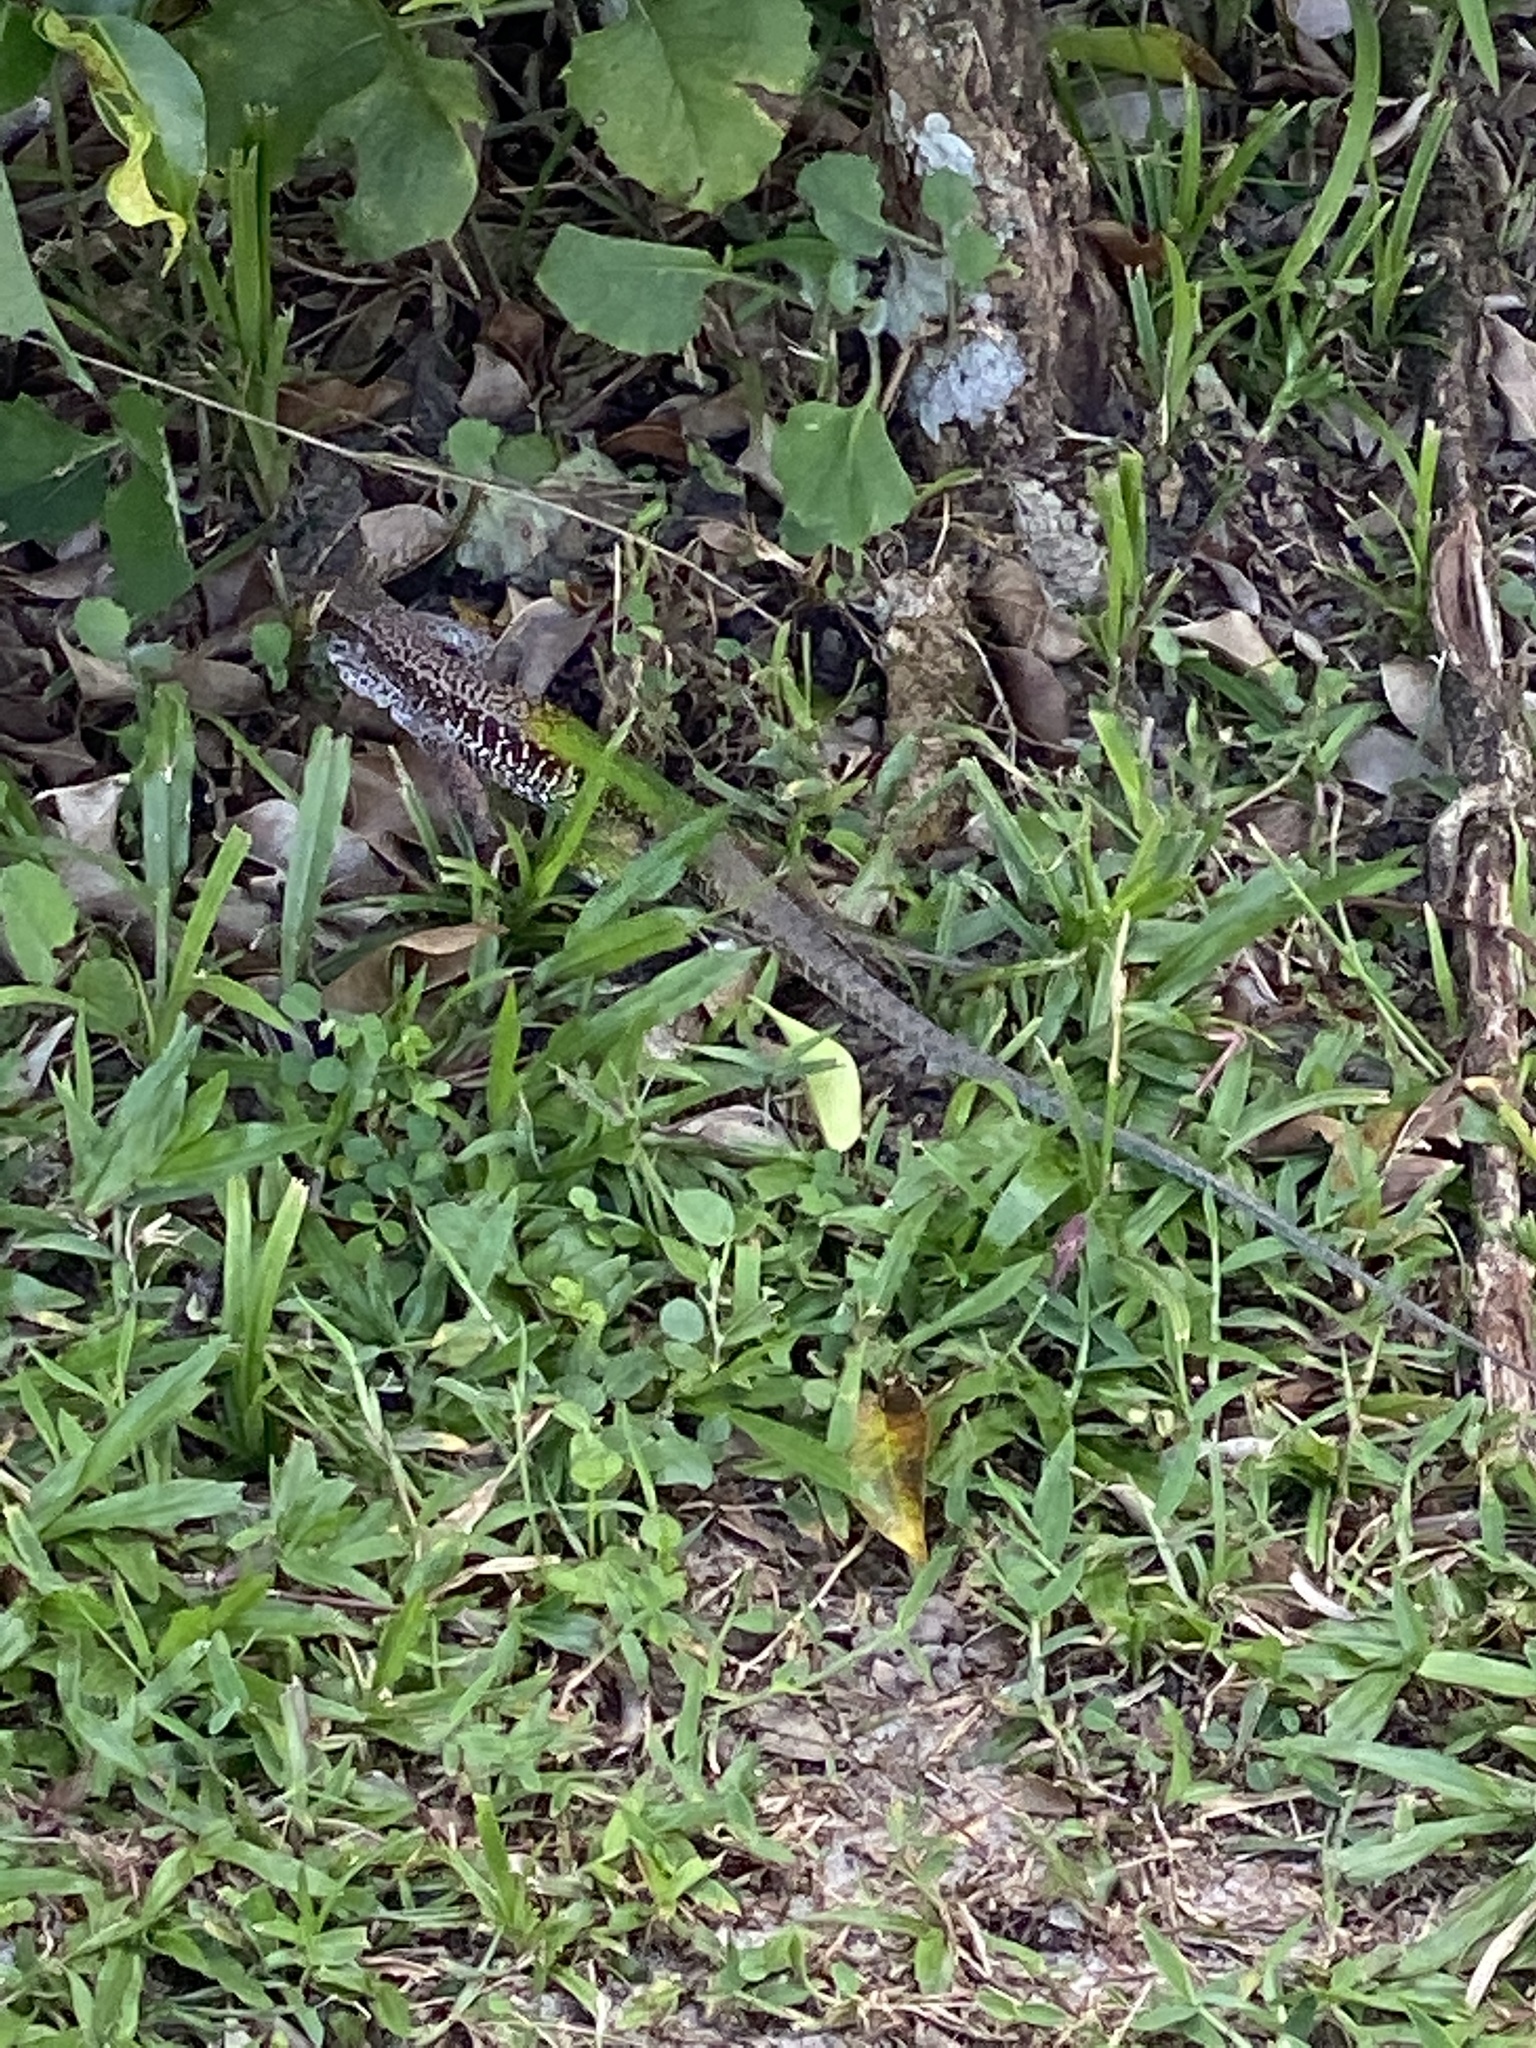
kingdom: Animalia
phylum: Chordata
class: Squamata
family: Teiidae
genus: Ameiva
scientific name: Ameiva ameiva
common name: Giant ameiva
